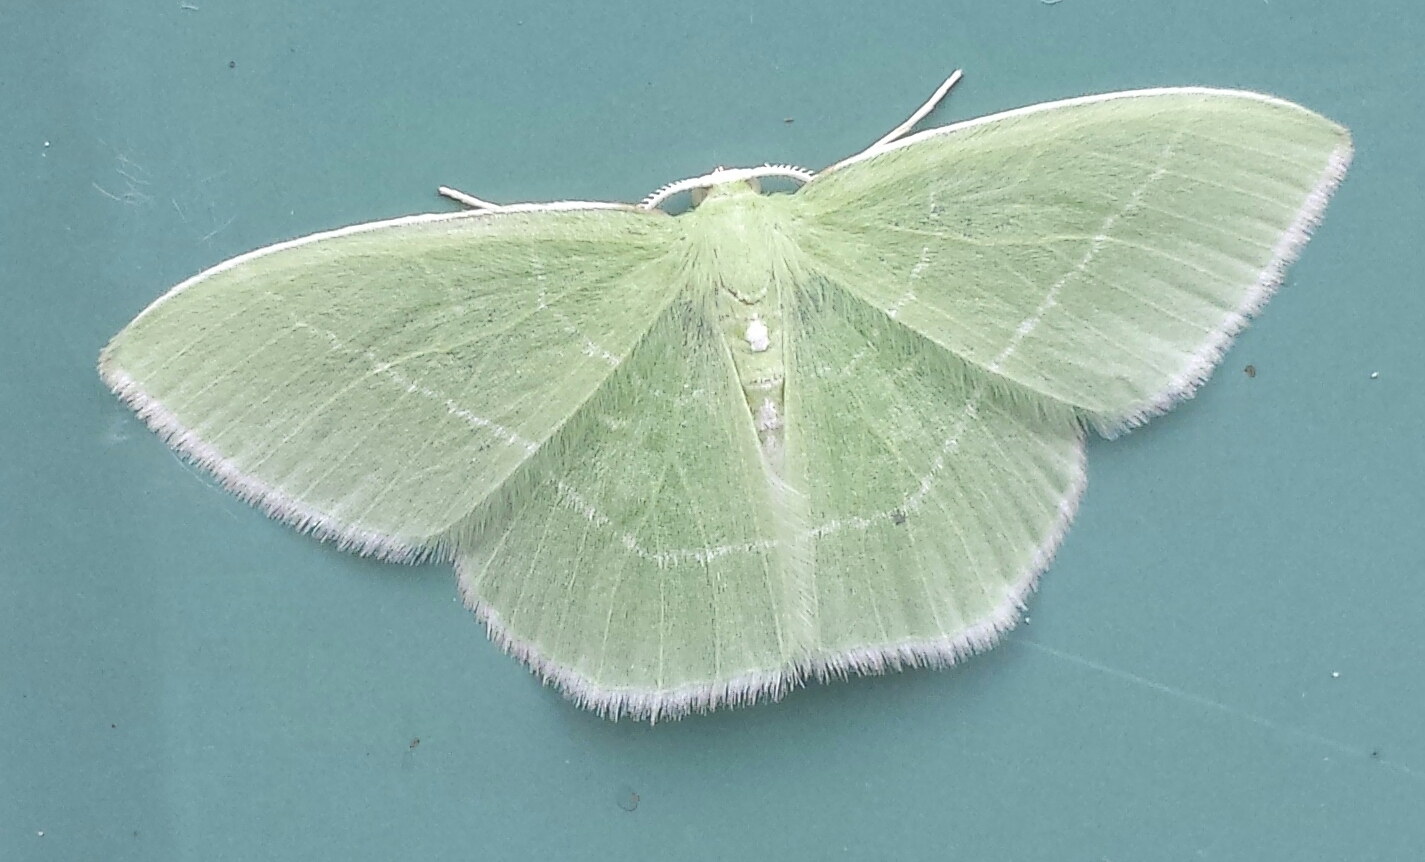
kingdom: Animalia
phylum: Arthropoda
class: Insecta
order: Lepidoptera
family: Geometridae
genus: Nemoria
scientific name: Nemoria mimosaria
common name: White-fringed emerald
